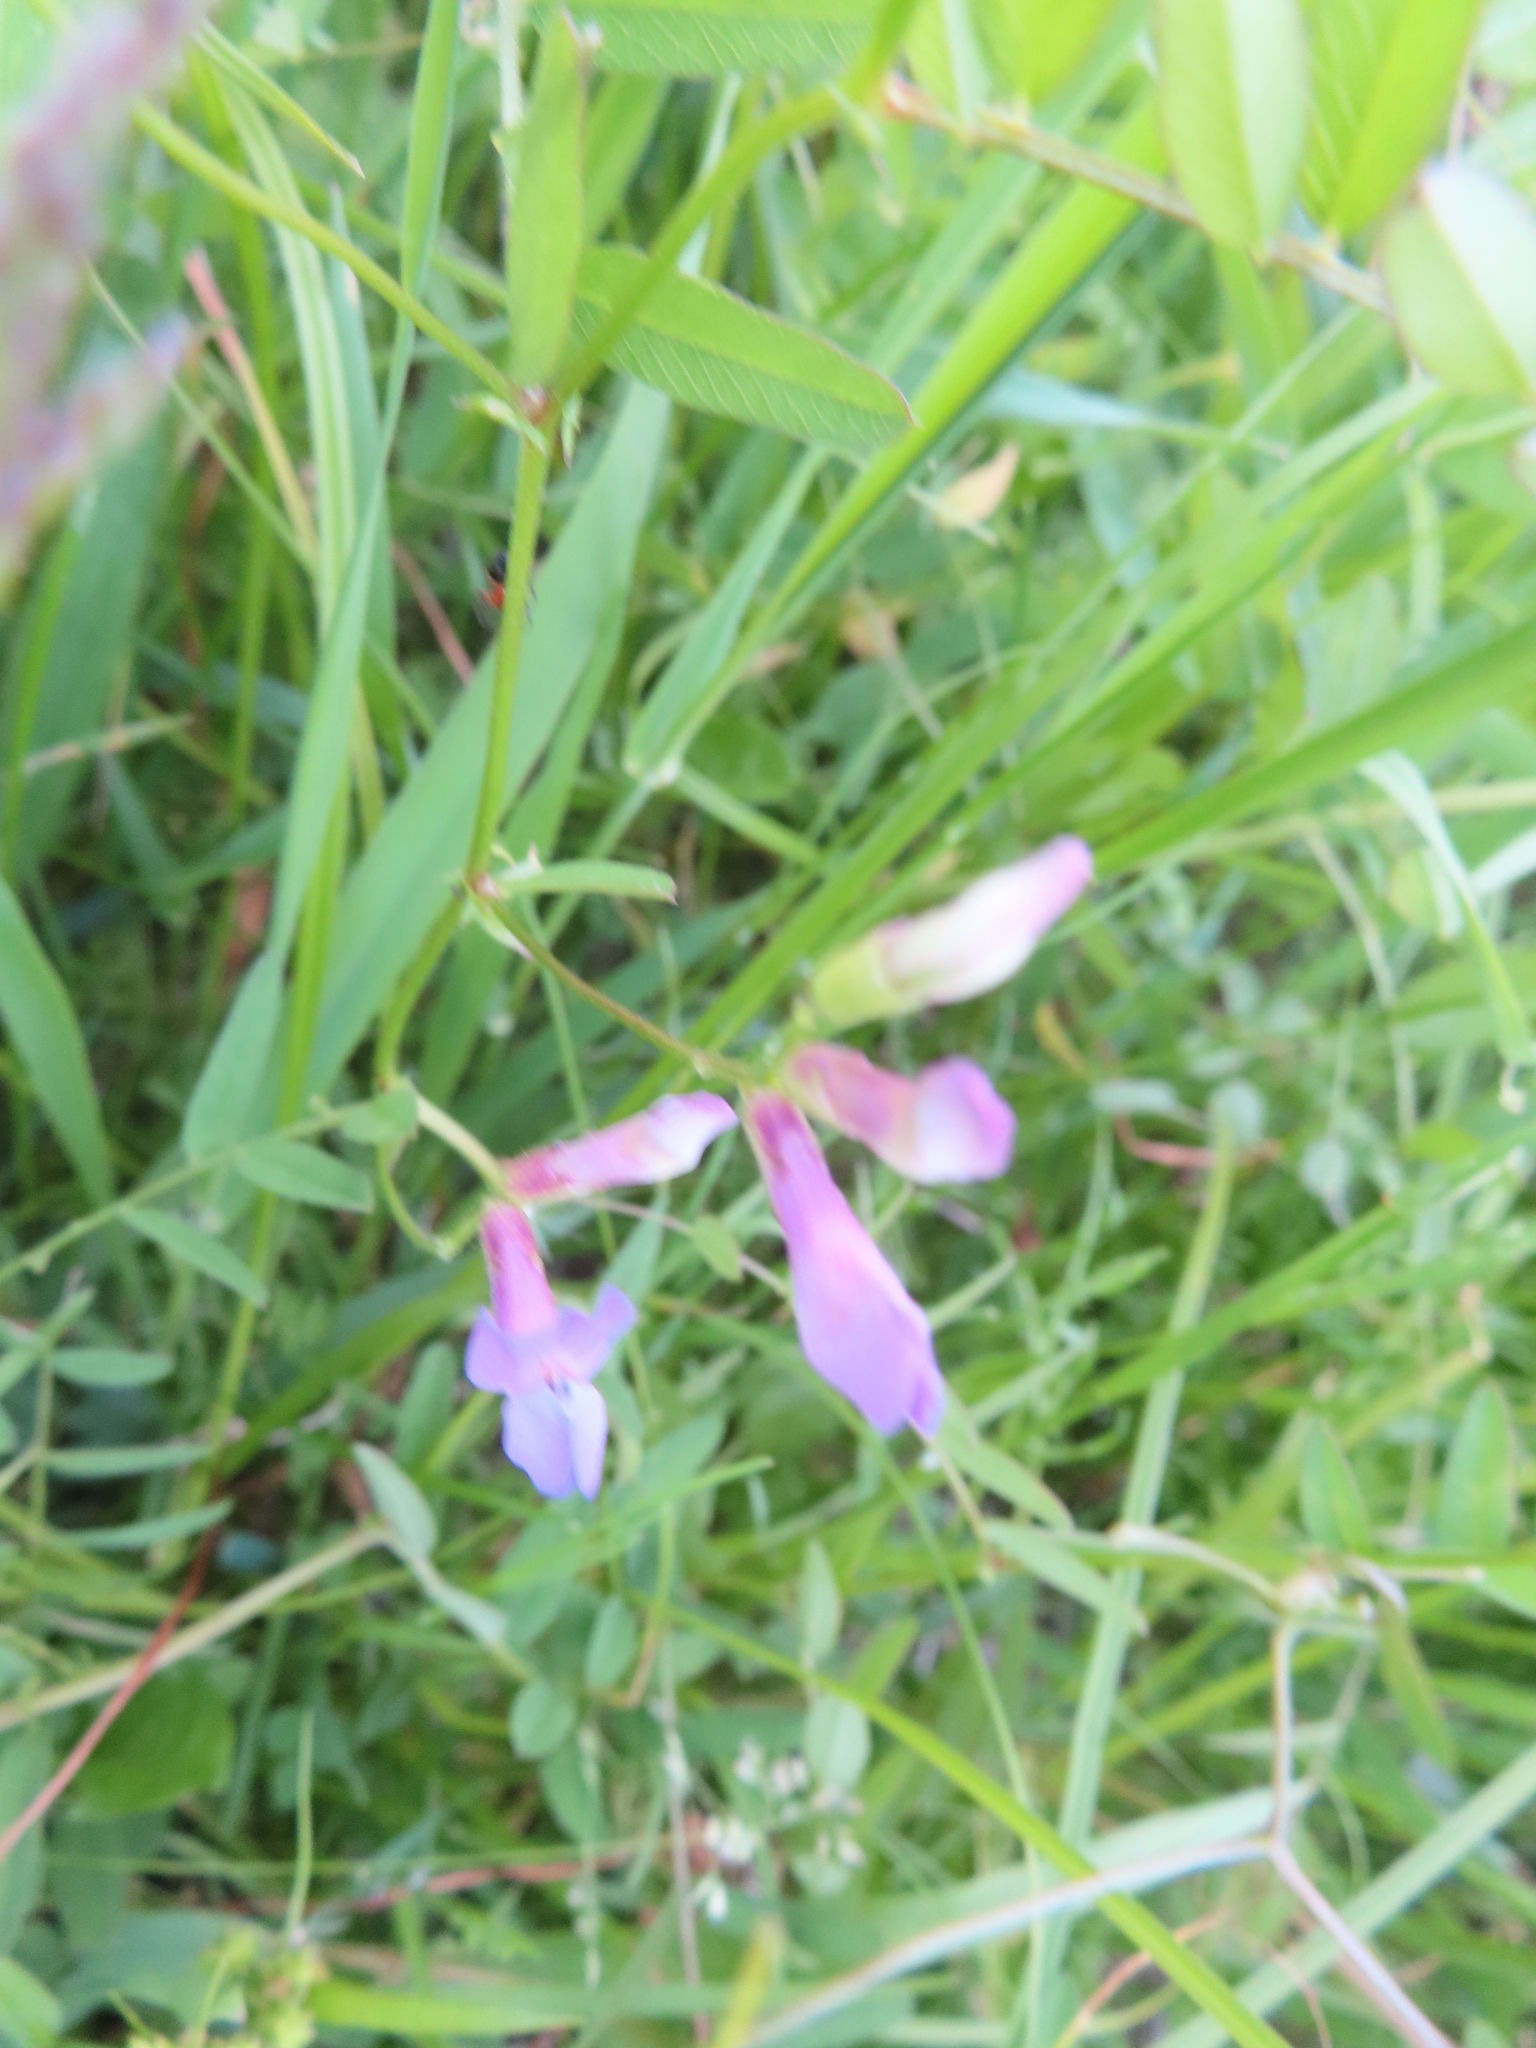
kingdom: Plantae
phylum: Tracheophyta
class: Magnoliopsida
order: Fabales
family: Fabaceae
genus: Vicia
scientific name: Vicia americana
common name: American vetch
